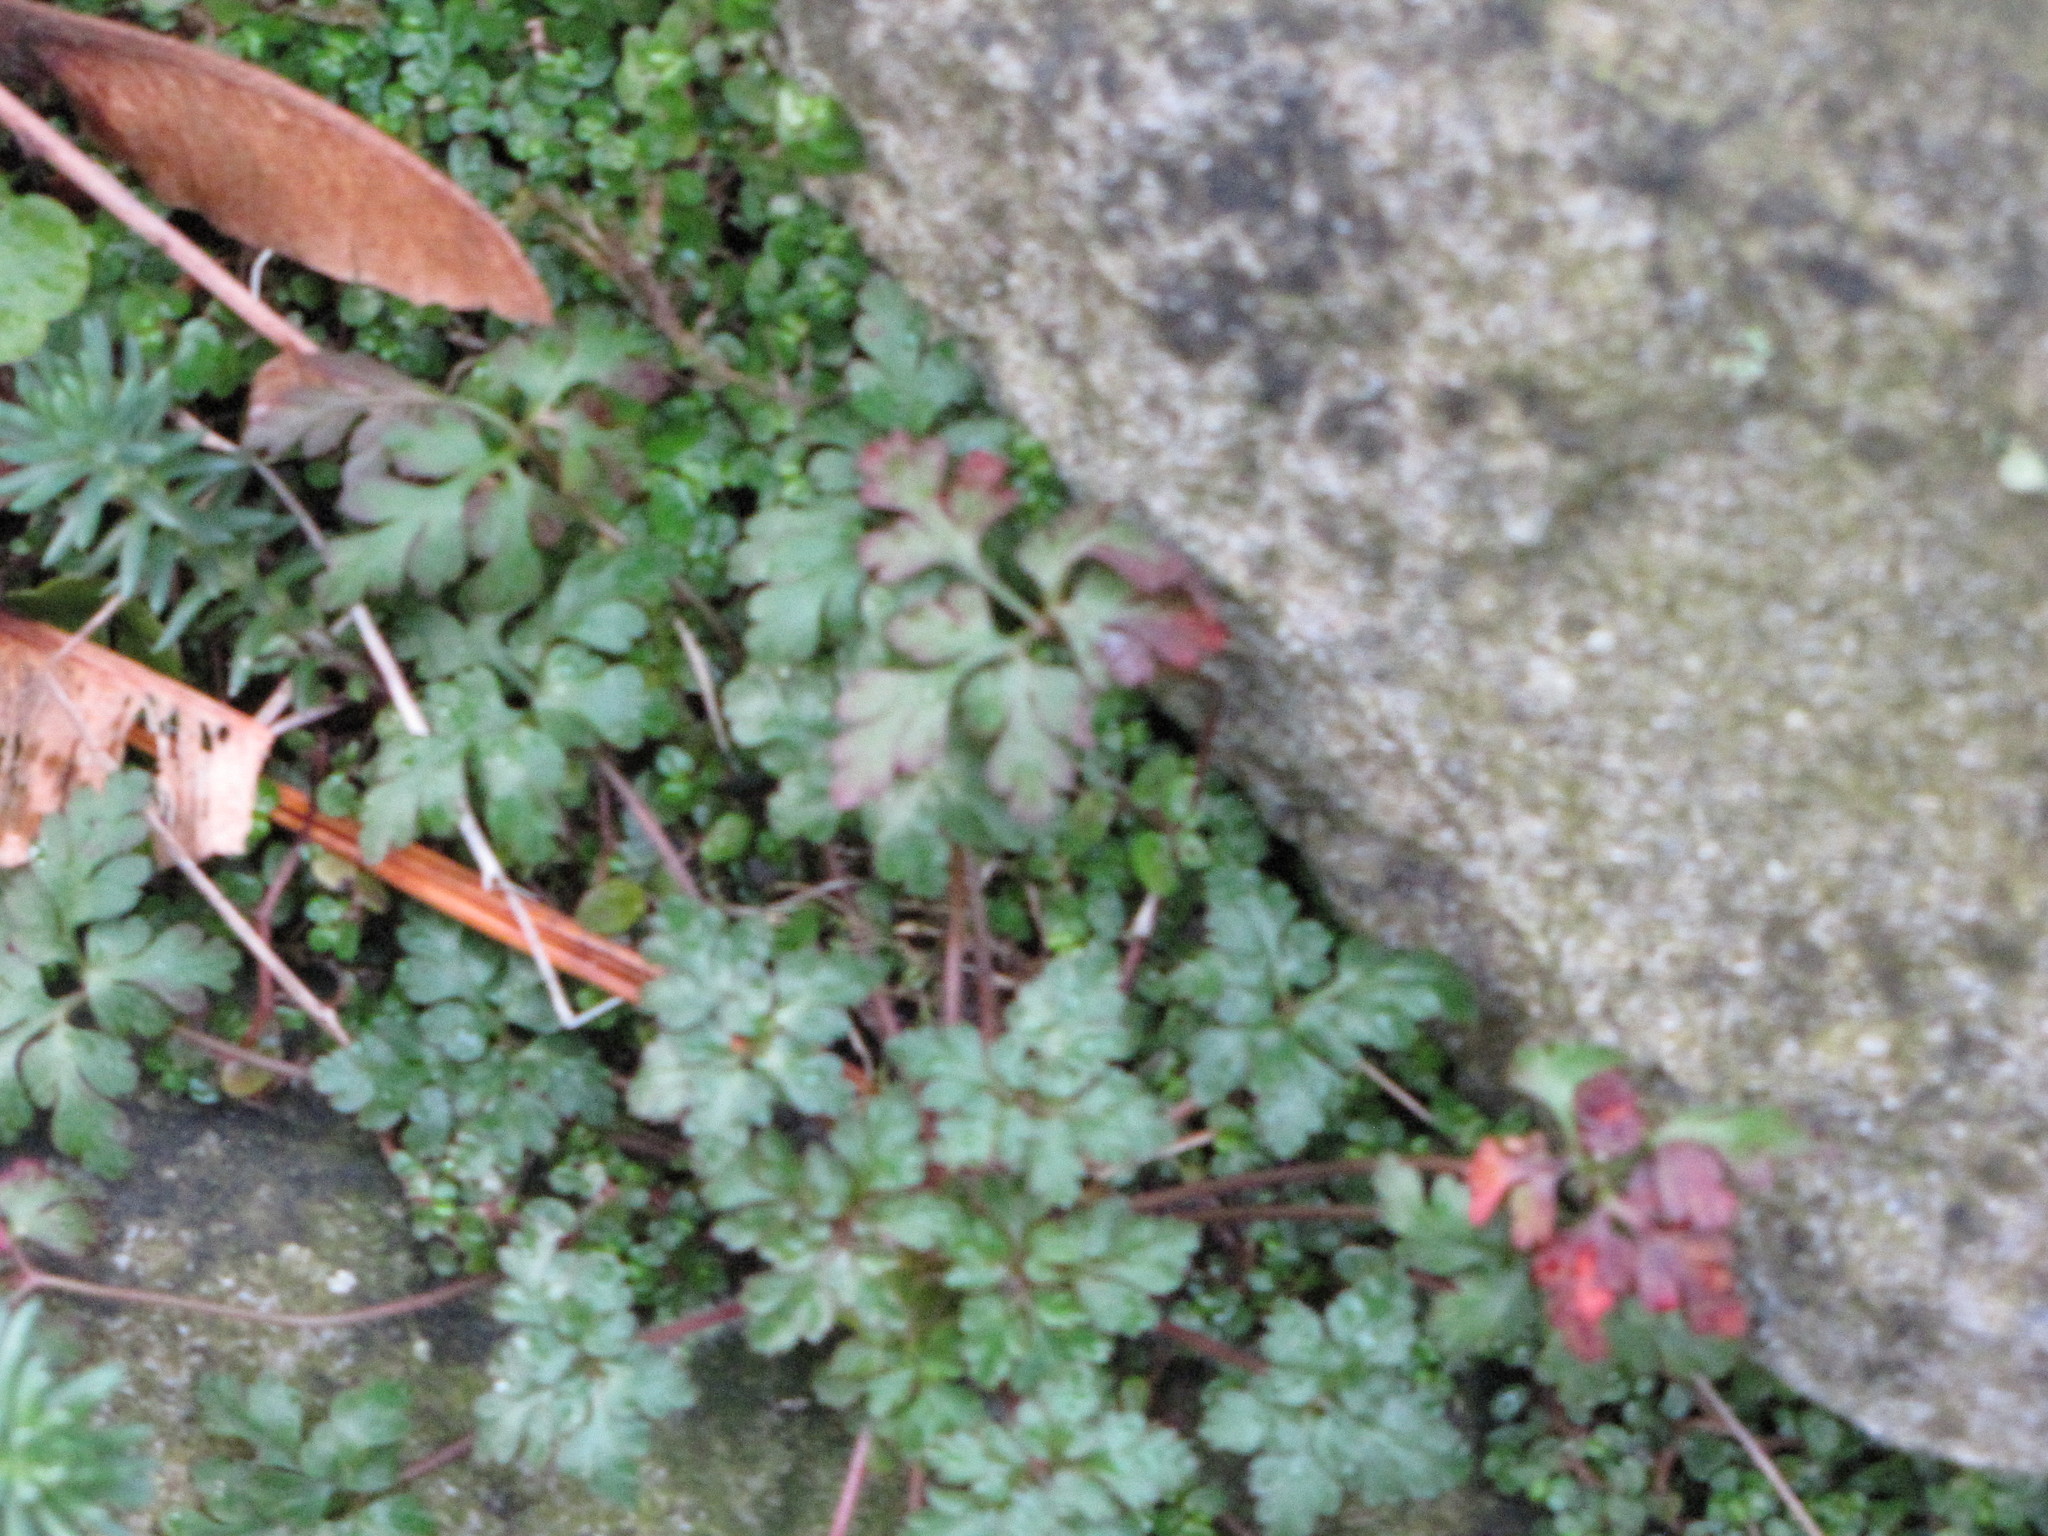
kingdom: Plantae
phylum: Tracheophyta
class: Magnoliopsida
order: Geraniales
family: Geraniaceae
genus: Geranium
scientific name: Geranium robertianum
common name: Herb-robert
